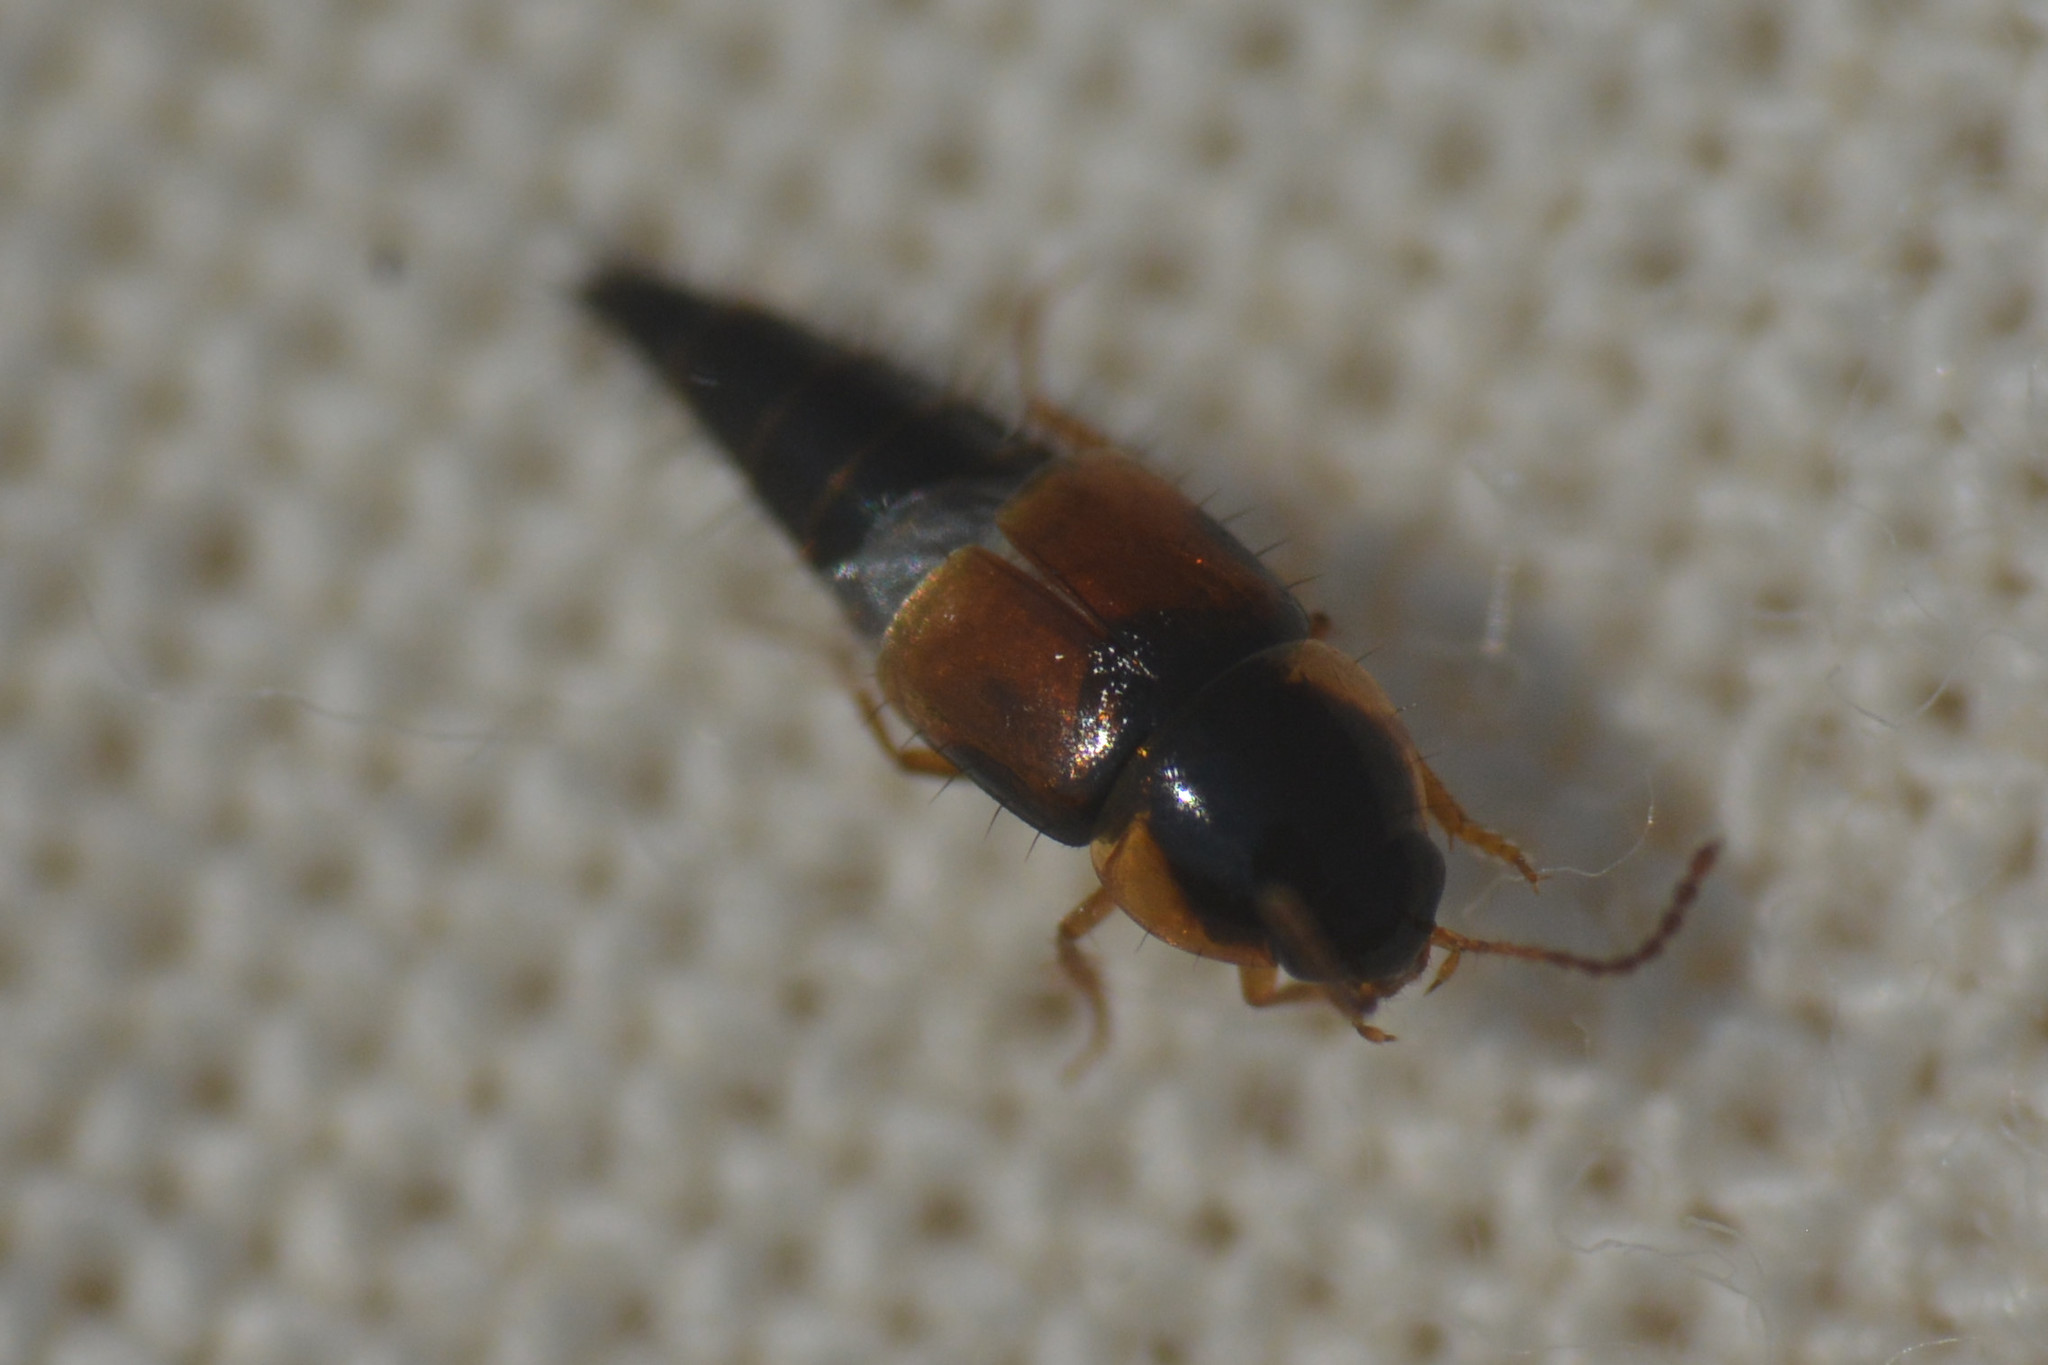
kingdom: Animalia
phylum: Arthropoda
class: Insecta
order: Coleoptera
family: Staphylinidae
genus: Tachyporus
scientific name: Tachyporus hypnorum
